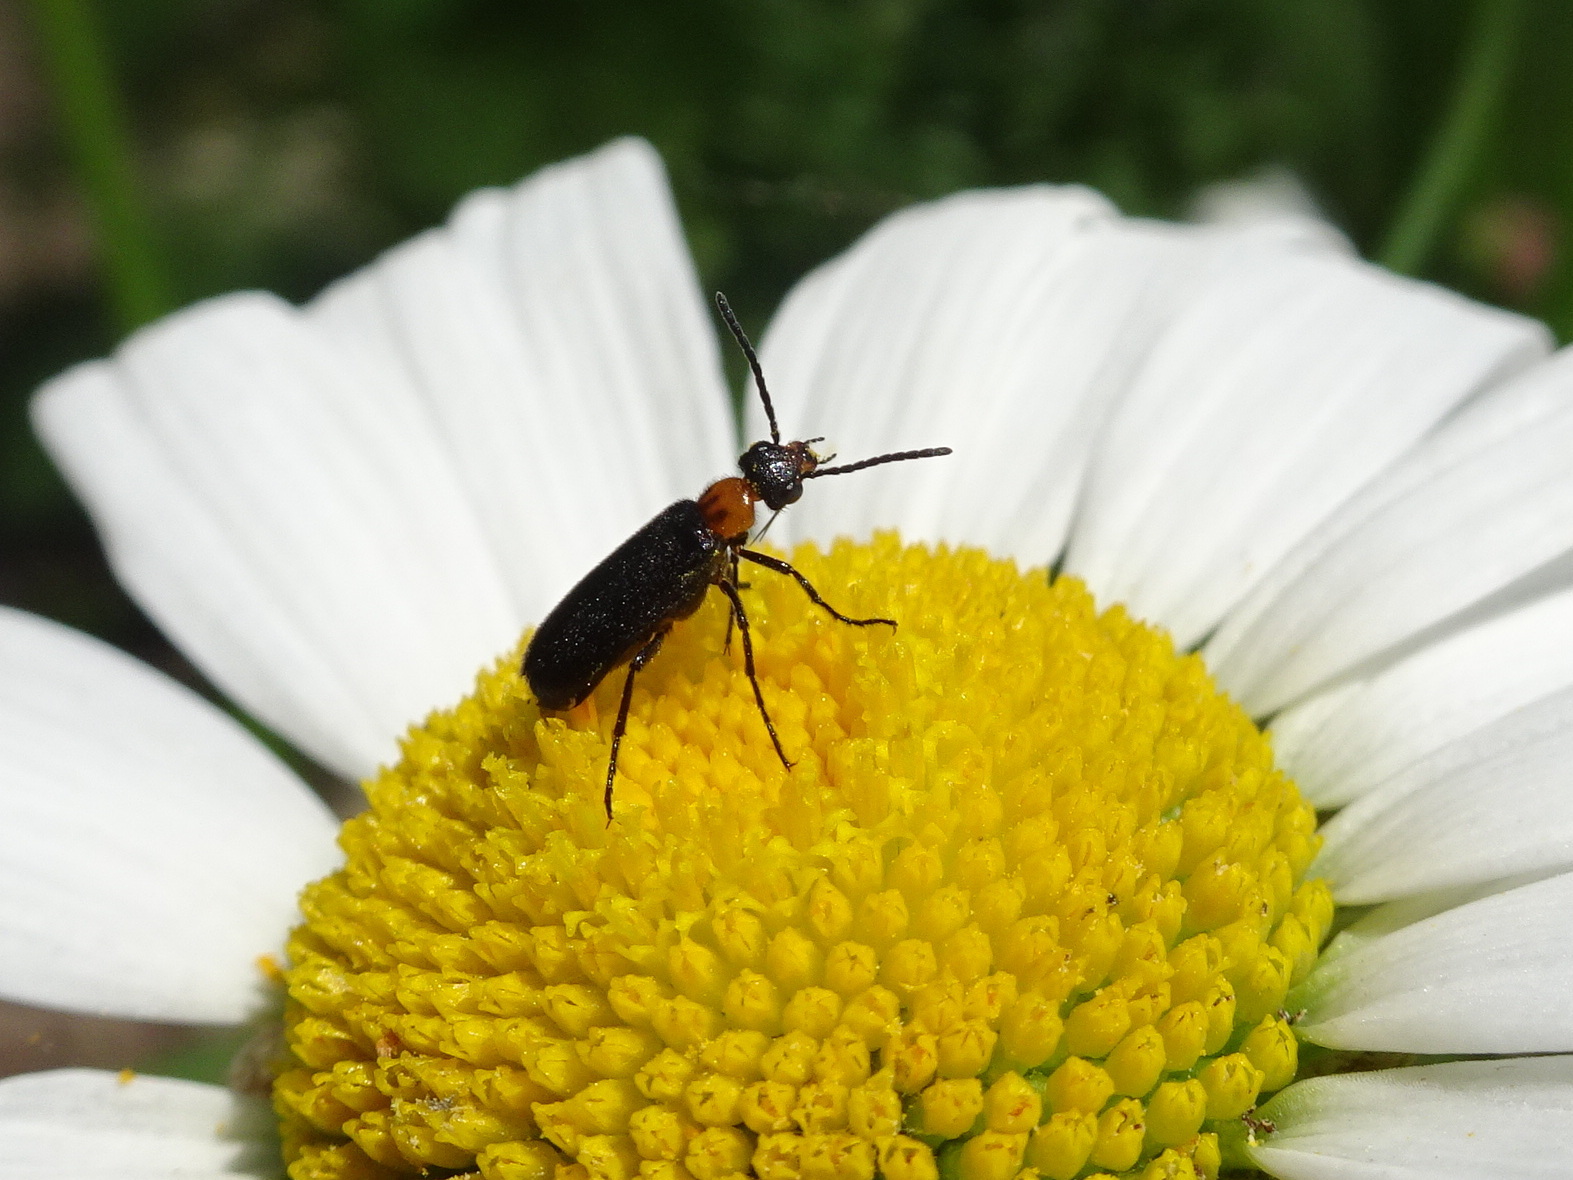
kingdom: Animalia
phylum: Arthropoda
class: Insecta
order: Coleoptera
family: Meloidae
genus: Nemognatha
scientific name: Nemognatha nemorensis
